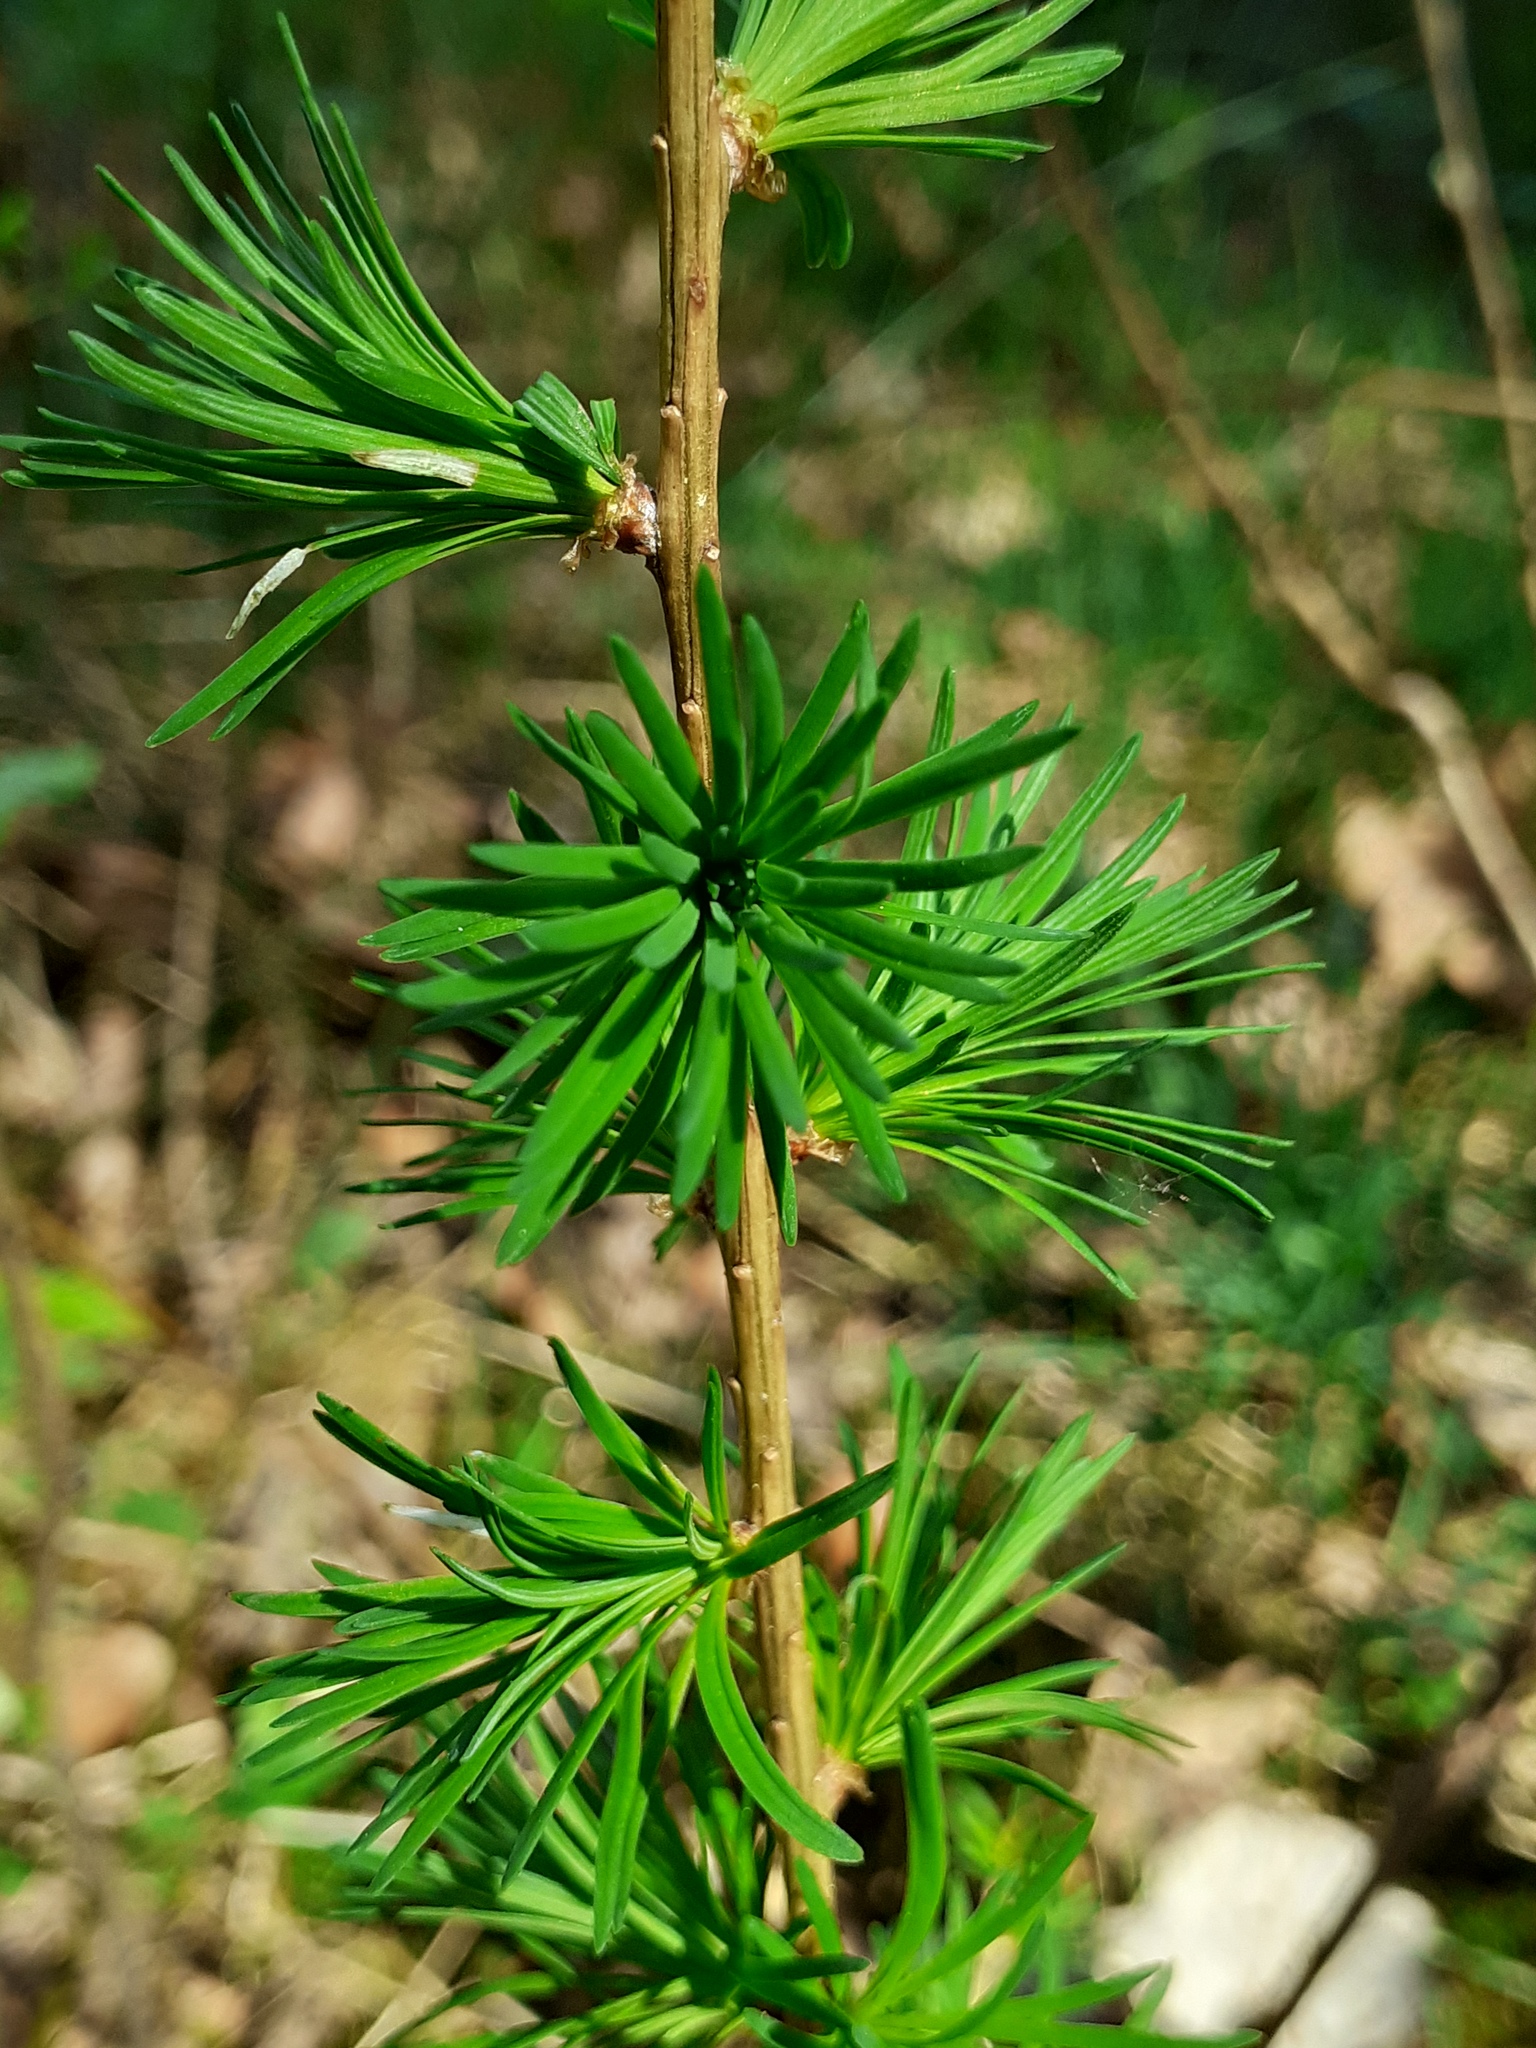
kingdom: Plantae
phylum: Tracheophyta
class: Pinopsida
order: Pinales
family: Pinaceae
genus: Larix
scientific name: Larix decidua
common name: European larch
